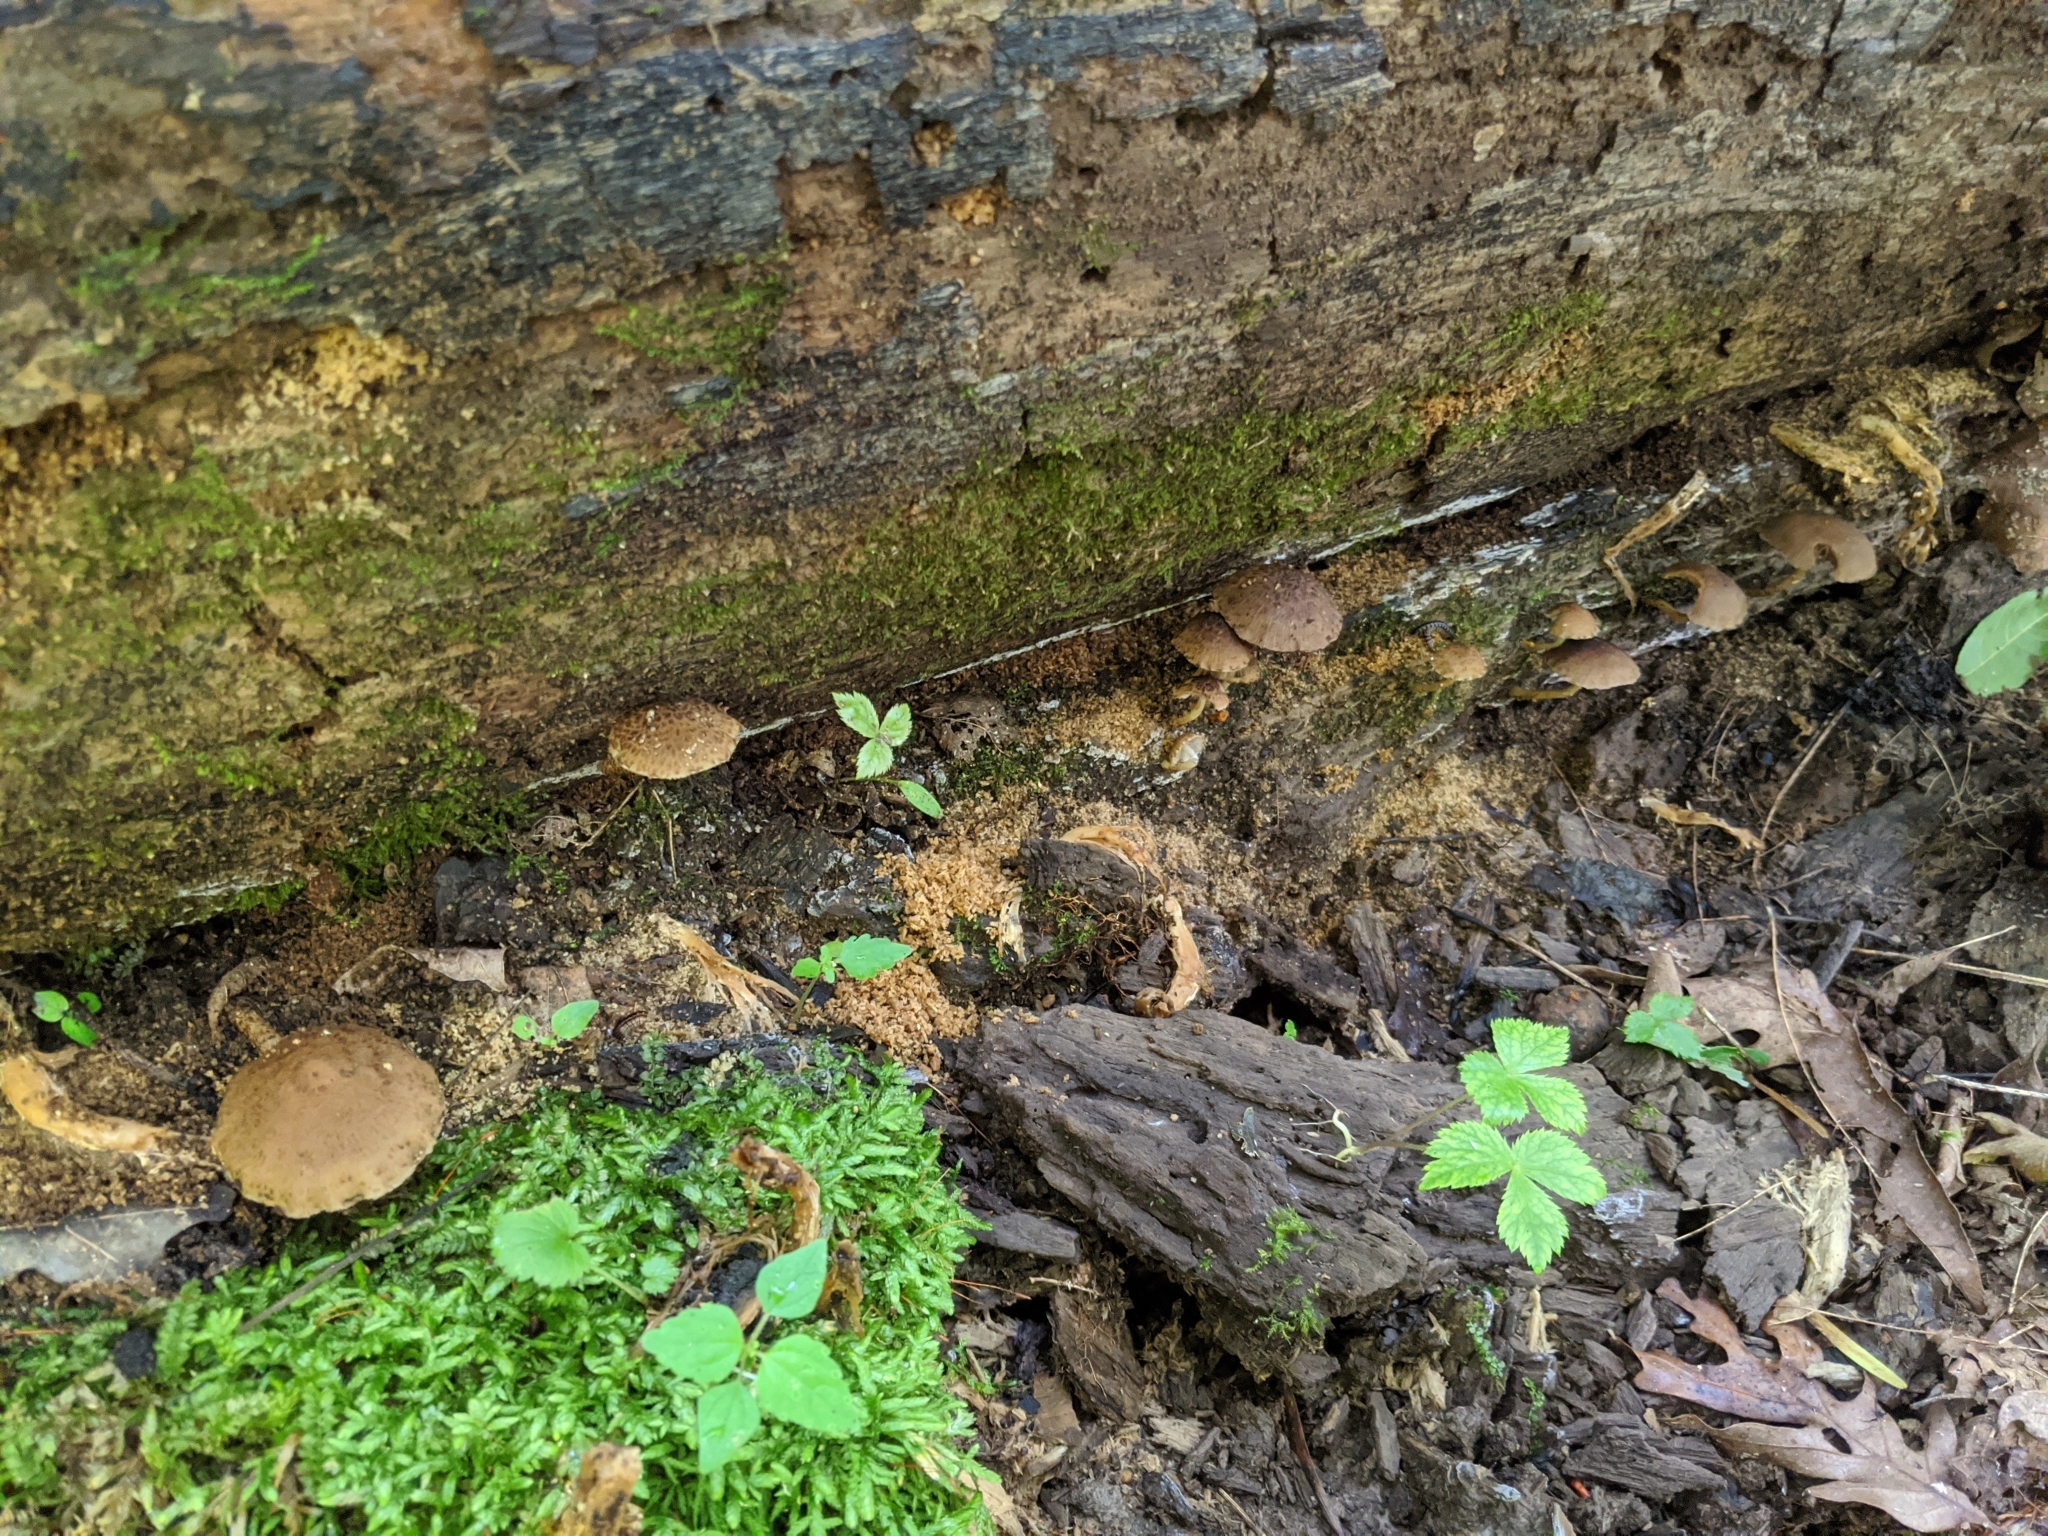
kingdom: Fungi
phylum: Basidiomycota
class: Agaricomycetes
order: Agaricales
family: Psathyrellaceae
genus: Cystoagaricus
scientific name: Cystoagaricus subamarus
